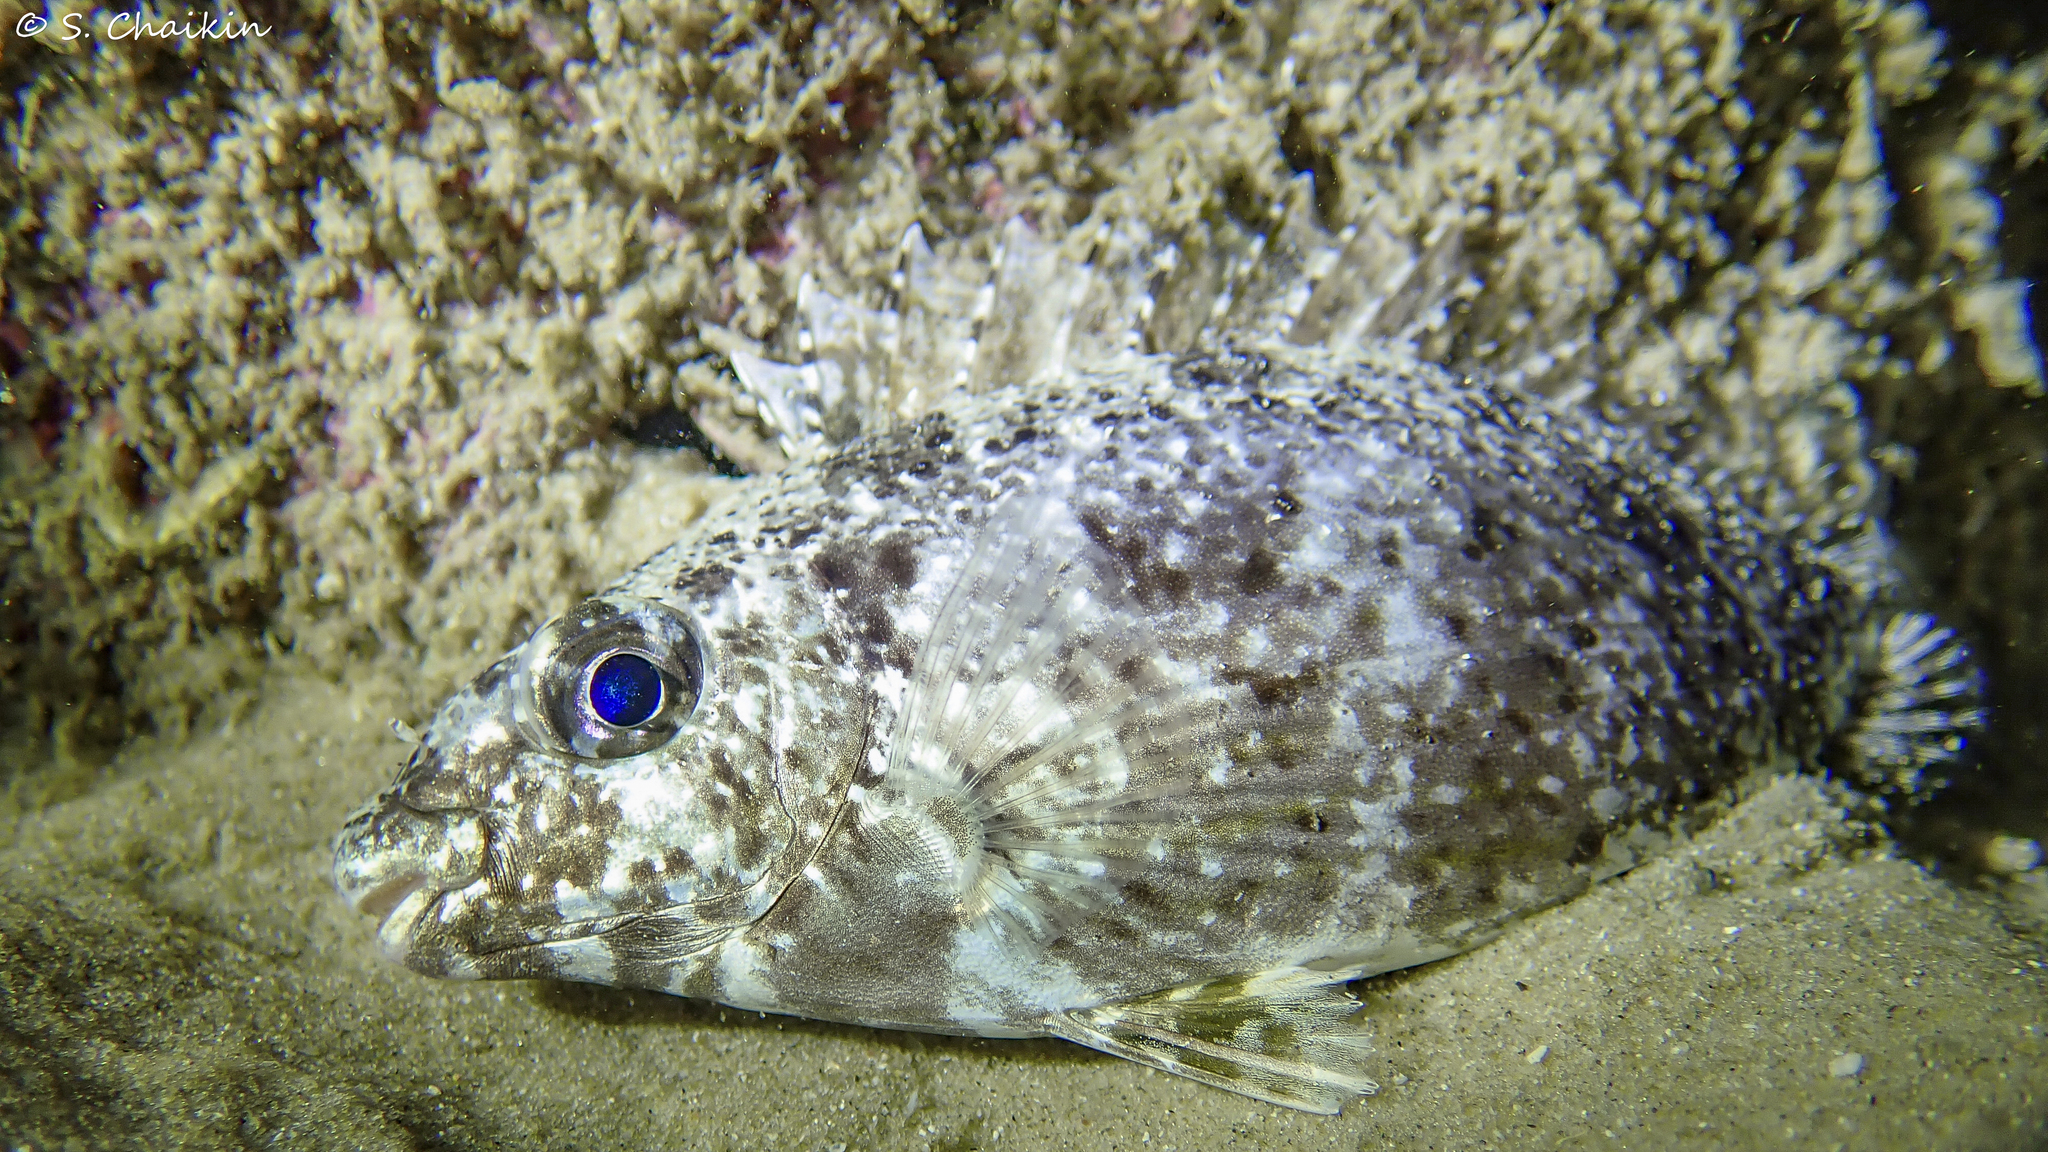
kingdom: Animalia
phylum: Chordata
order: Perciformes
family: Siganidae
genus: Siganus
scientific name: Siganus rivulatus
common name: Marbled spinefoot
